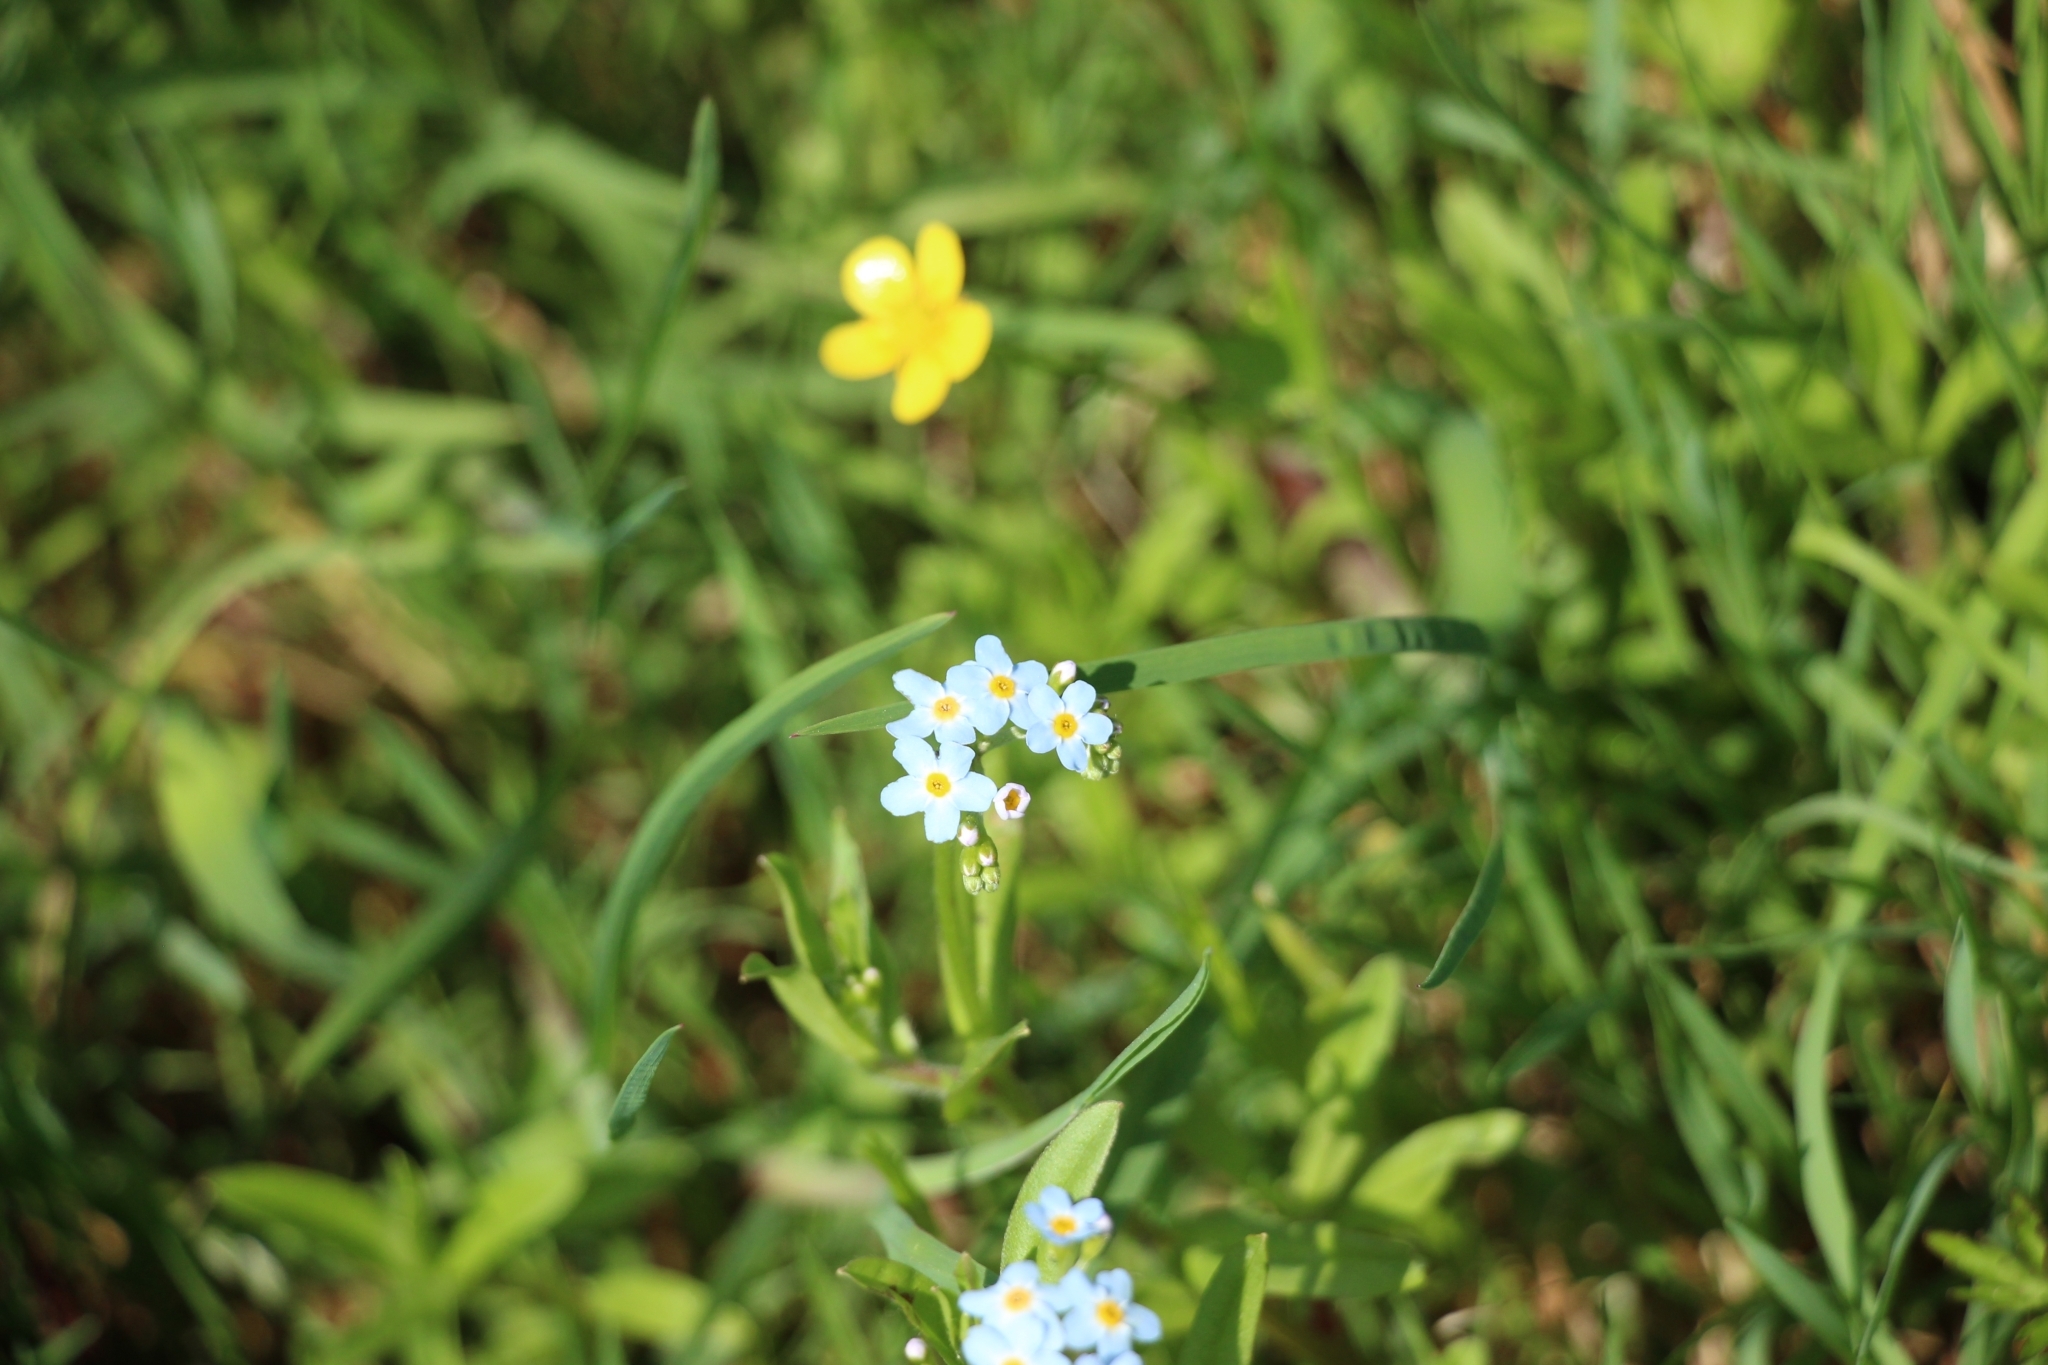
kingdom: Plantae
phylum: Tracheophyta
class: Magnoliopsida
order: Boraginales
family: Boraginaceae
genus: Myosotis
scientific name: Myosotis scorpioides
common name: Water forget-me-not
